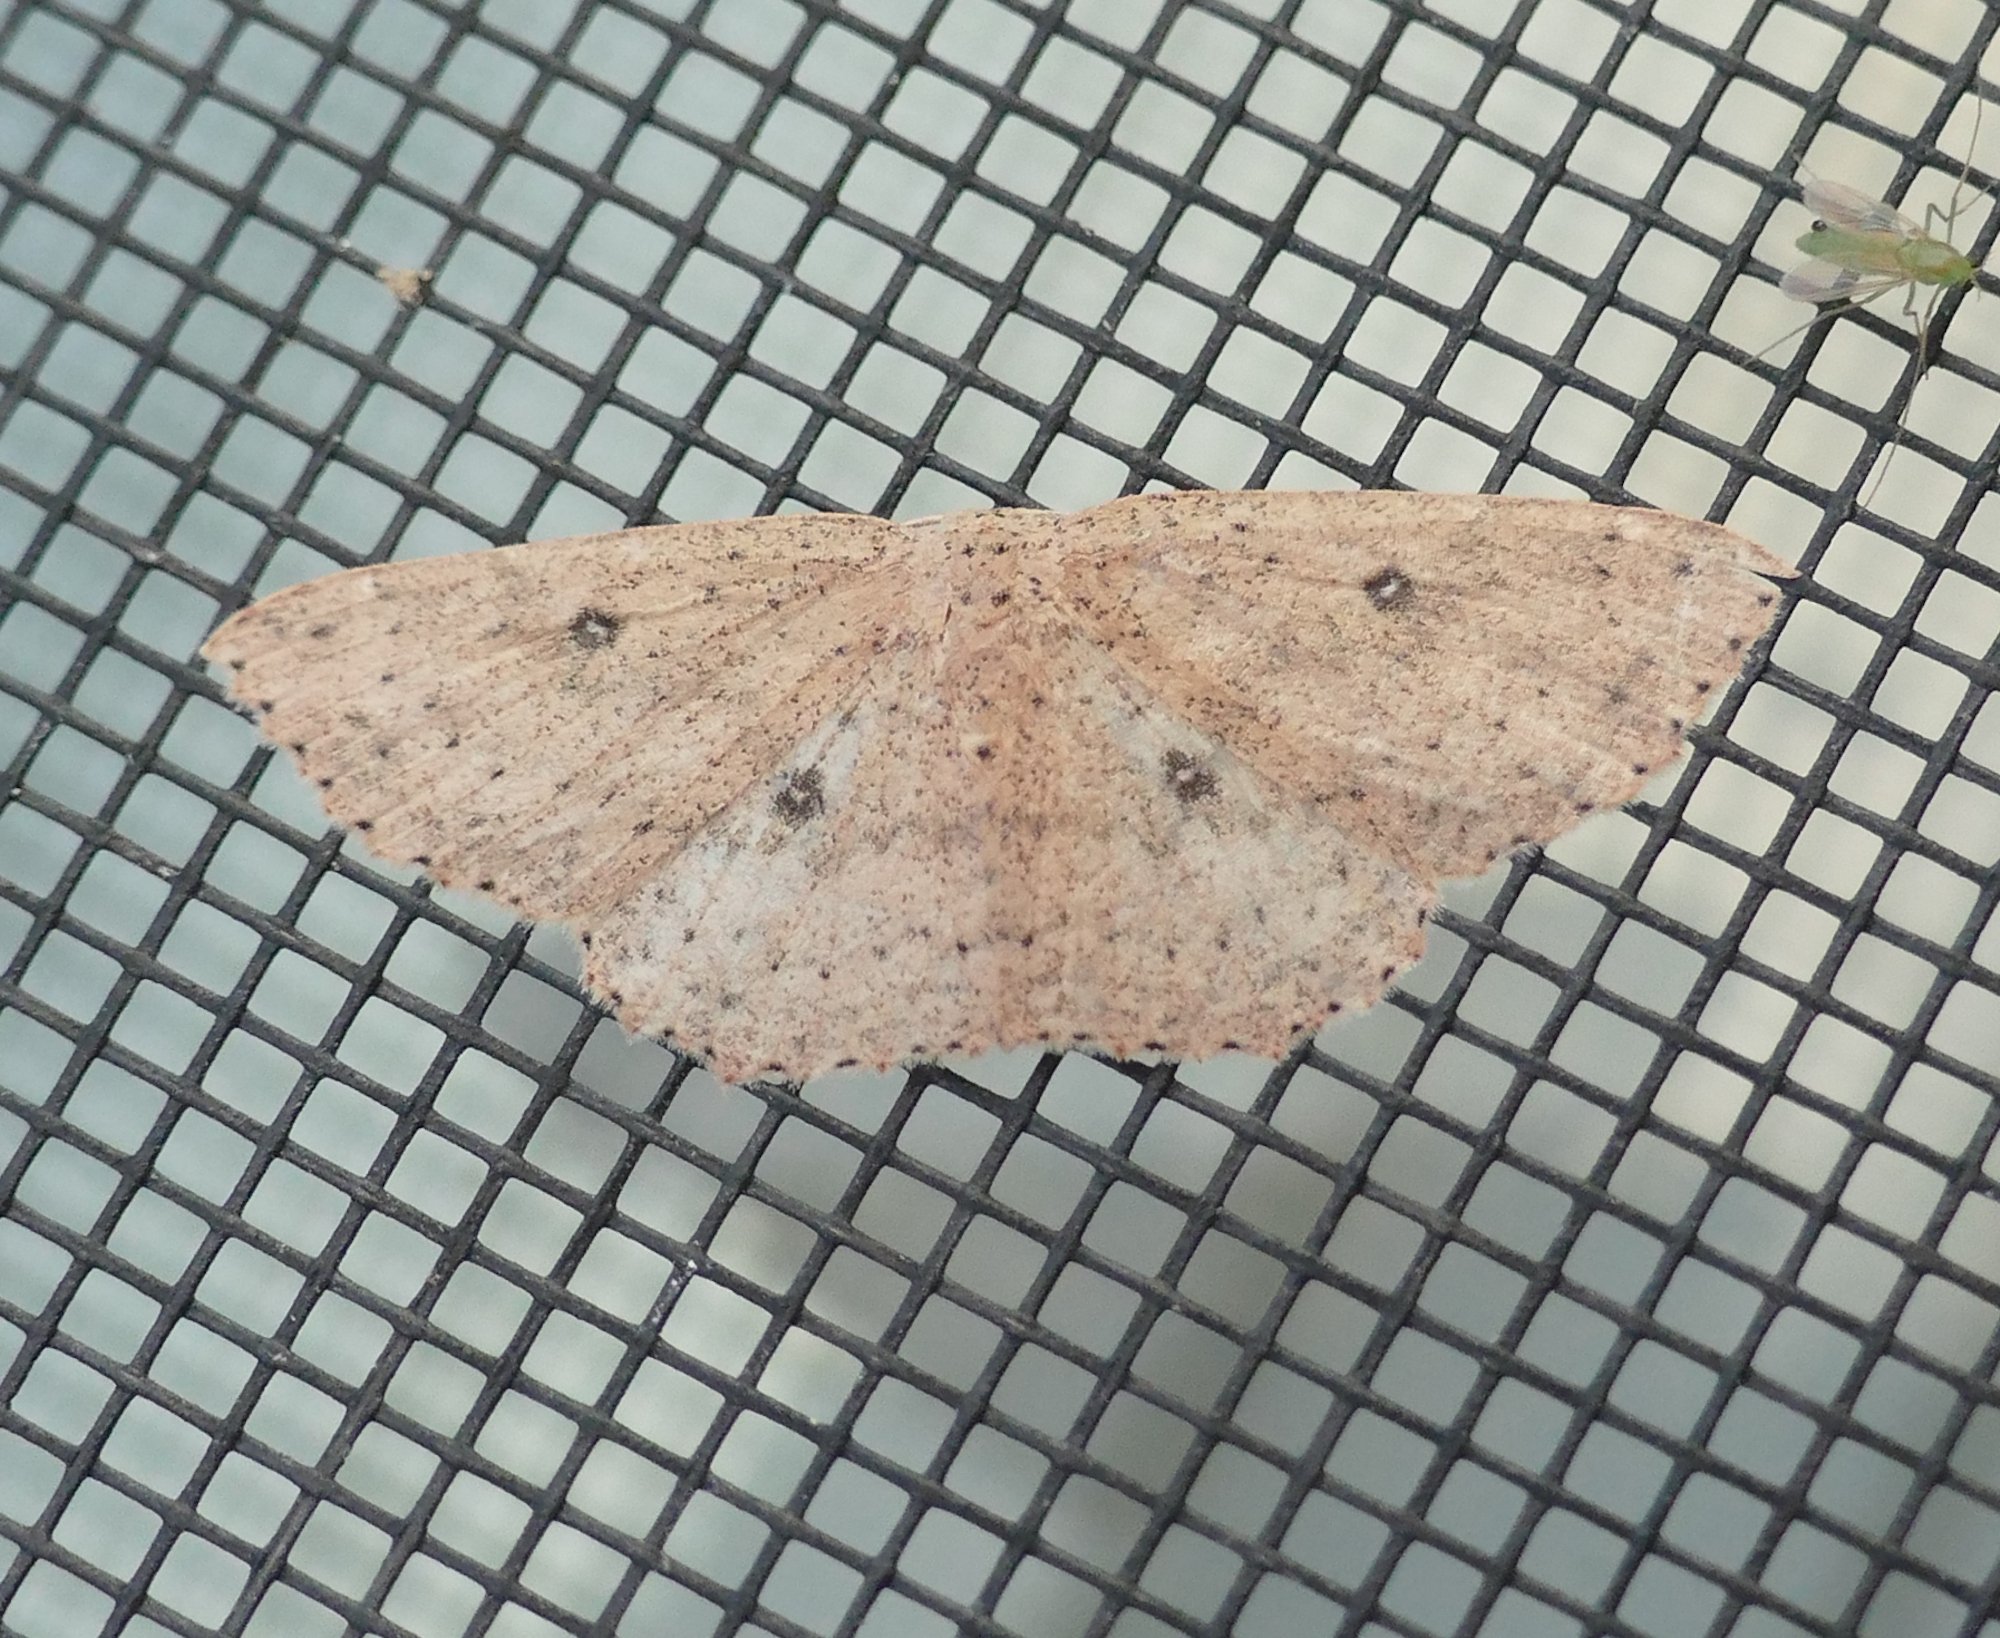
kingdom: Animalia
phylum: Arthropoda
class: Insecta
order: Lepidoptera
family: Geometridae
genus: Cyclophora
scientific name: Cyclophora myrtaria
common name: Waxmyrtle wave moth
